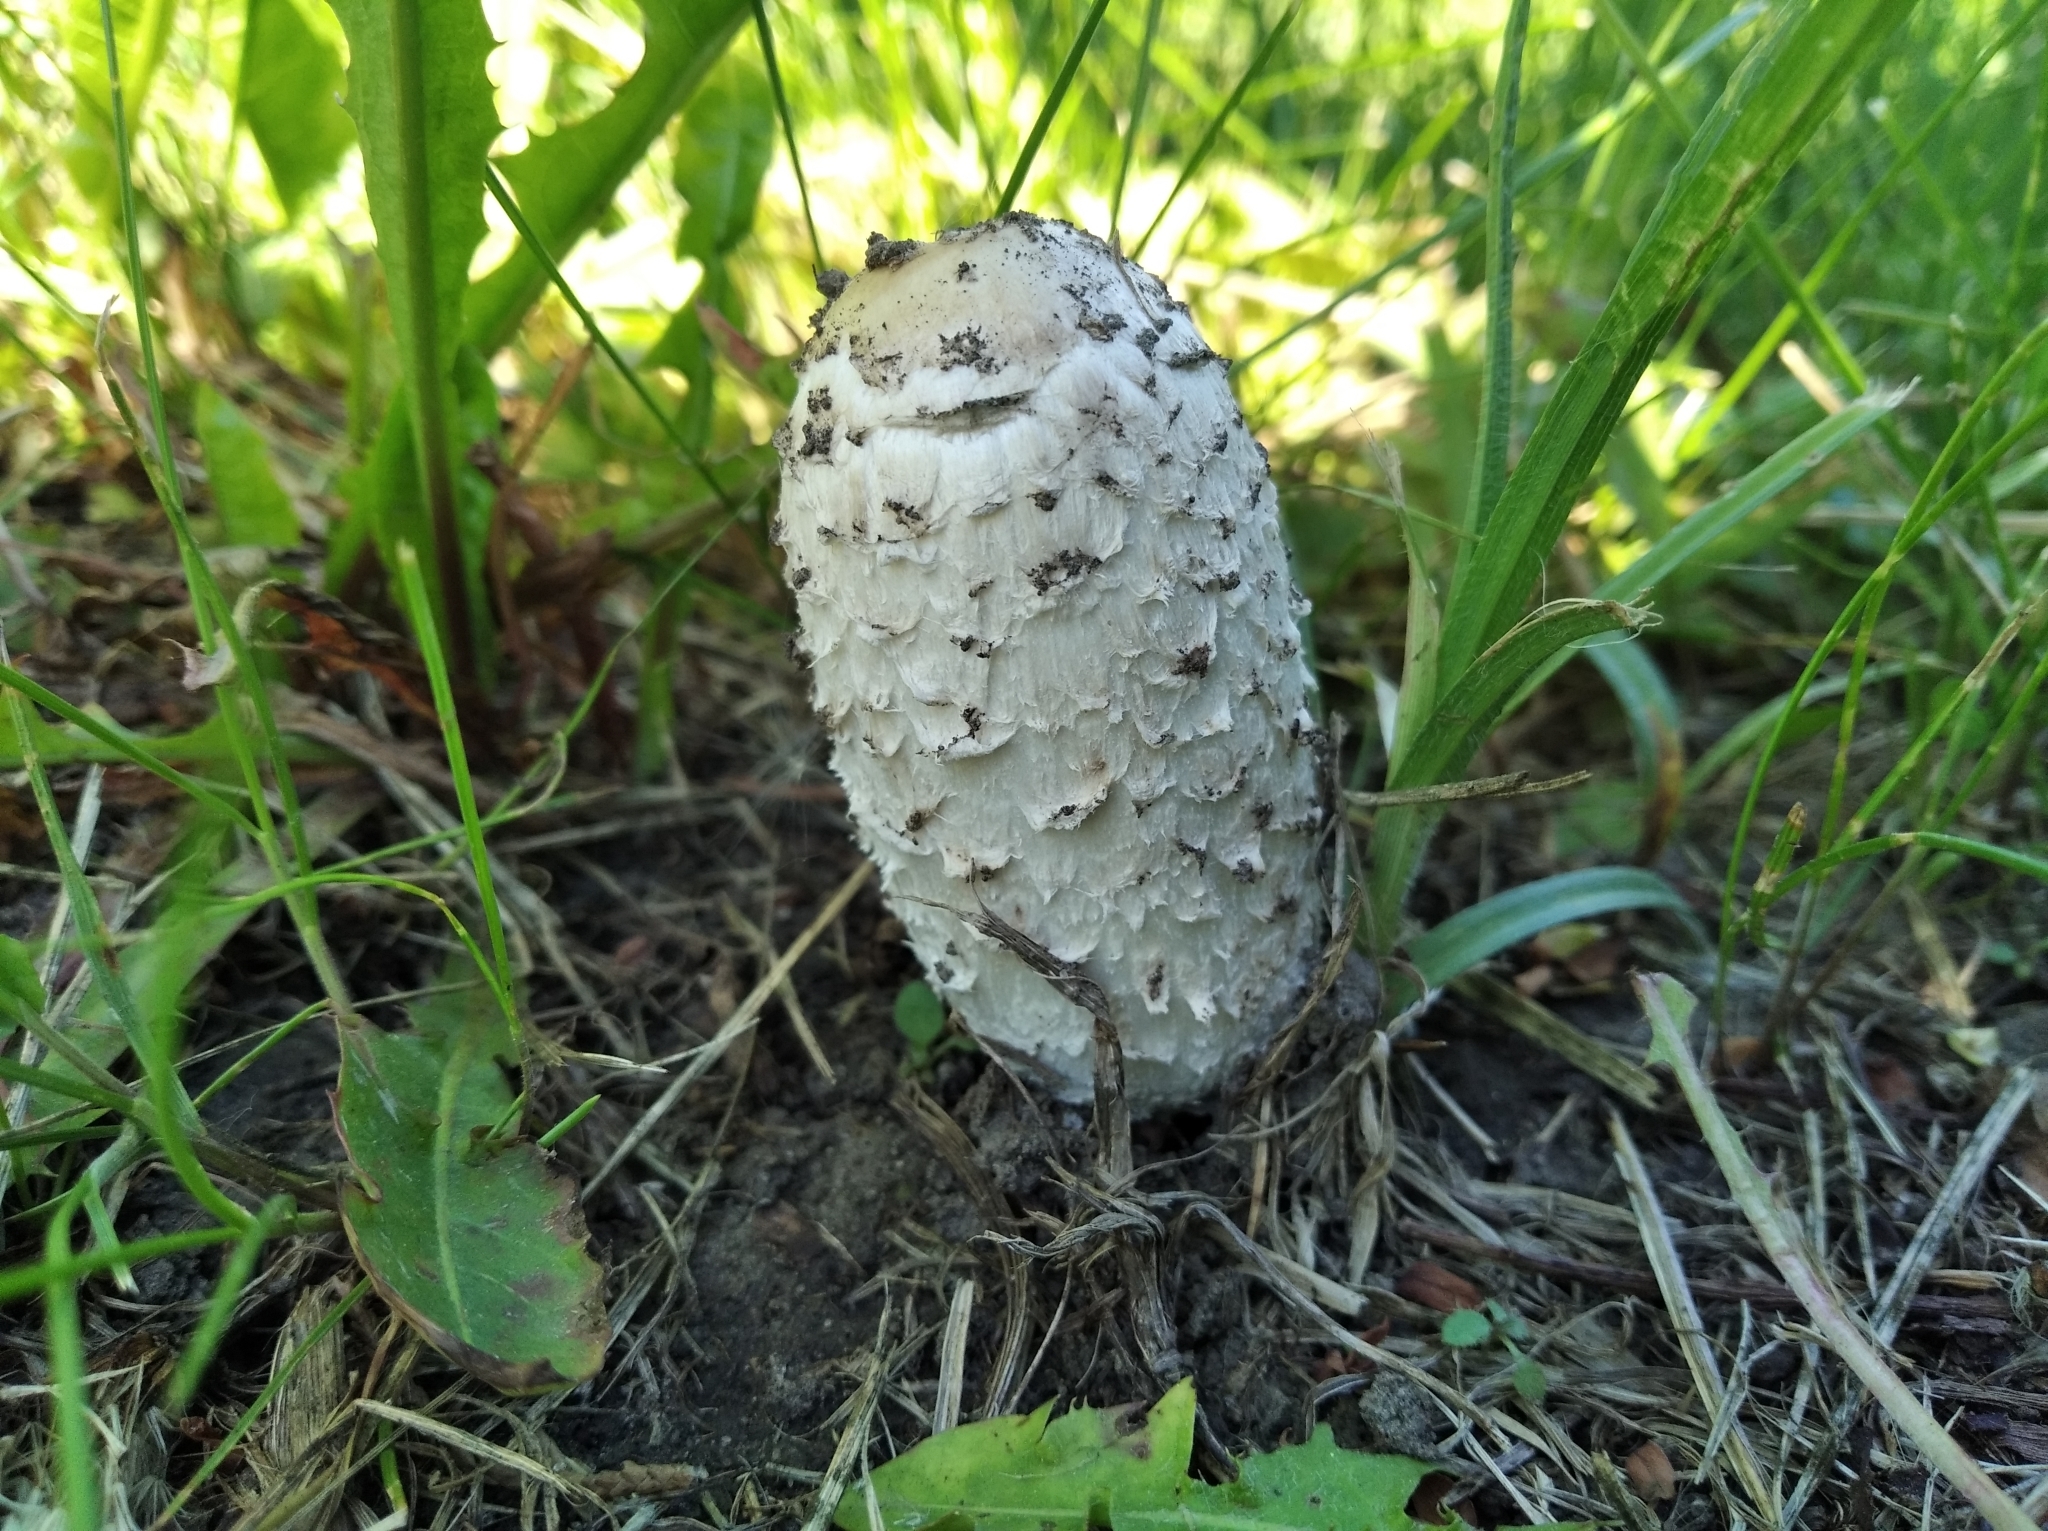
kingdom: Fungi
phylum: Basidiomycota
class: Agaricomycetes
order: Agaricales
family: Agaricaceae
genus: Coprinus
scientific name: Coprinus comatus
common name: Lawyer's wig
